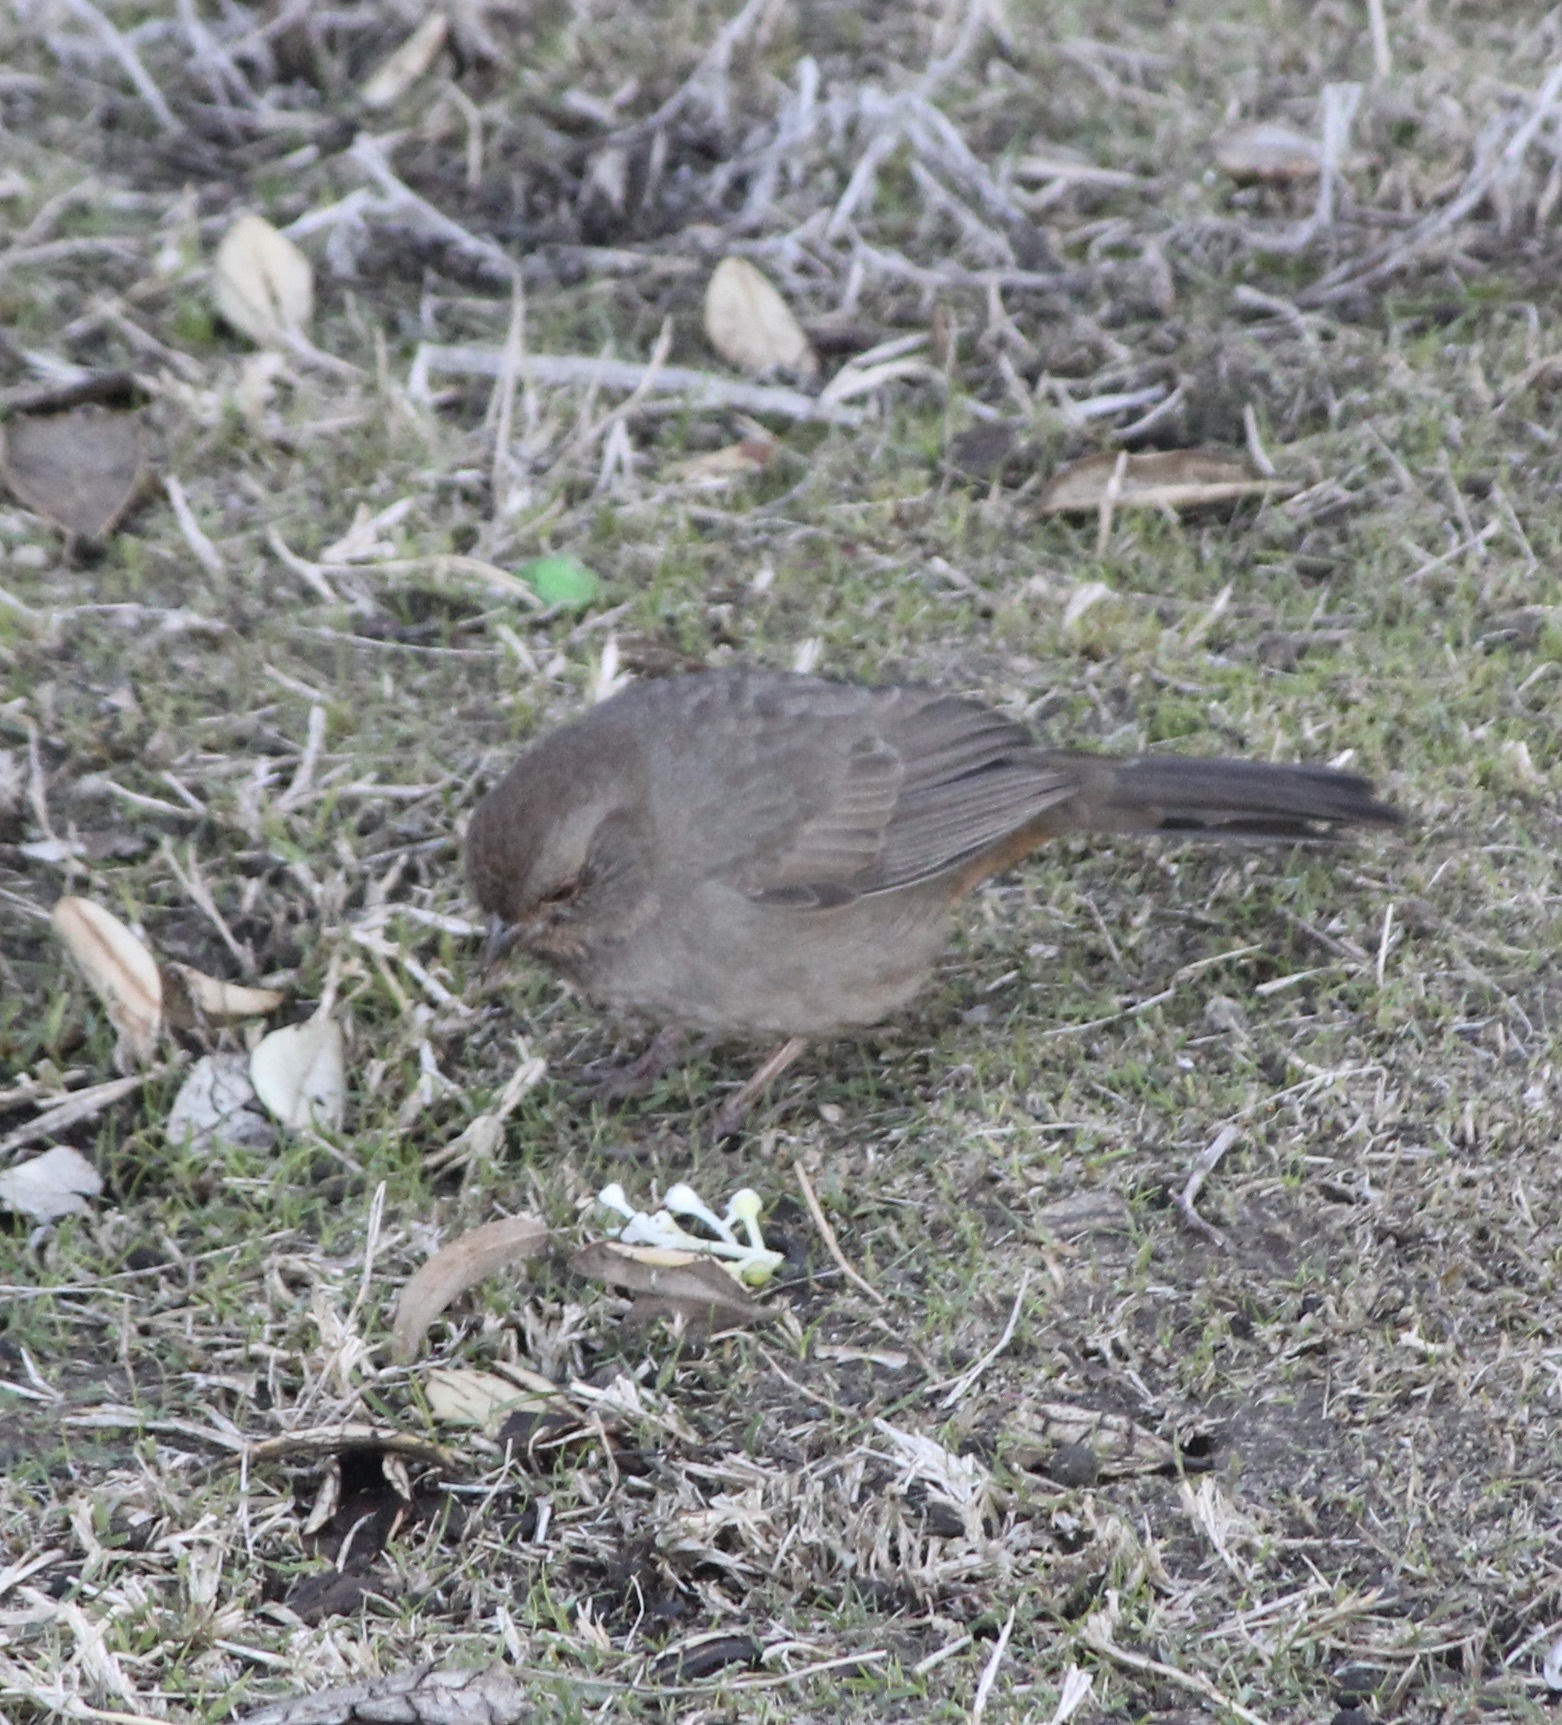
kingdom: Animalia
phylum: Chordata
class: Aves
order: Passeriformes
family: Passerellidae
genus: Melozone
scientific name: Melozone crissalis
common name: California towhee
